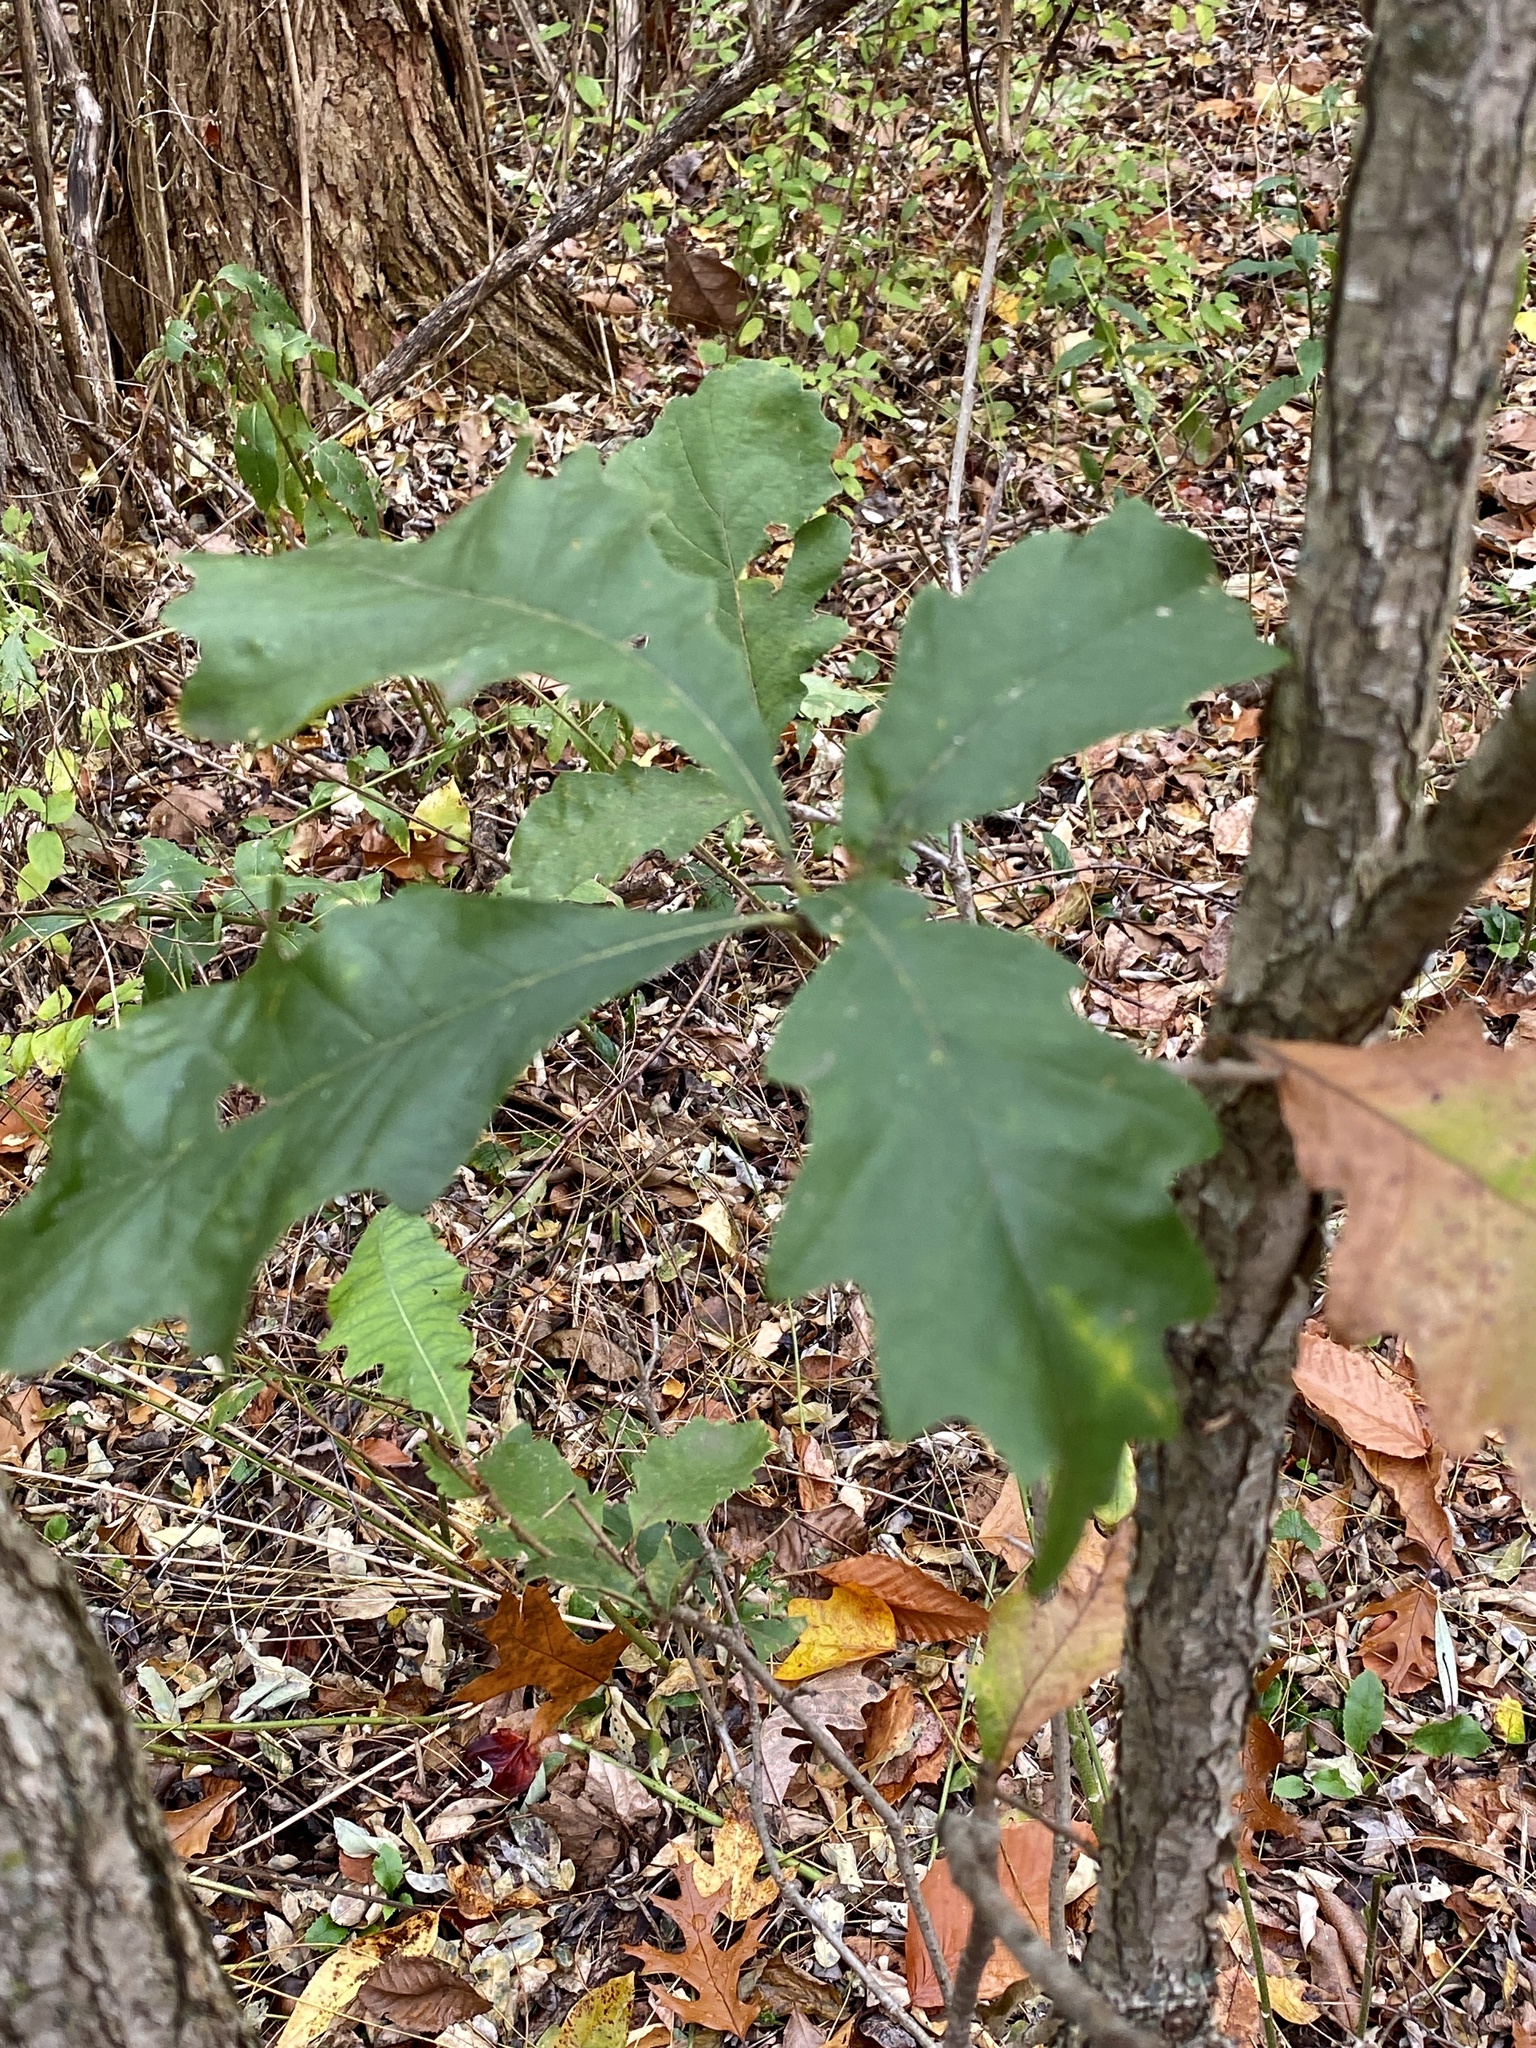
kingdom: Plantae
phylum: Tracheophyta
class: Magnoliopsida
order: Fagales
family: Fagaceae
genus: Quercus
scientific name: Quercus bicolor
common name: Swamp white oak
